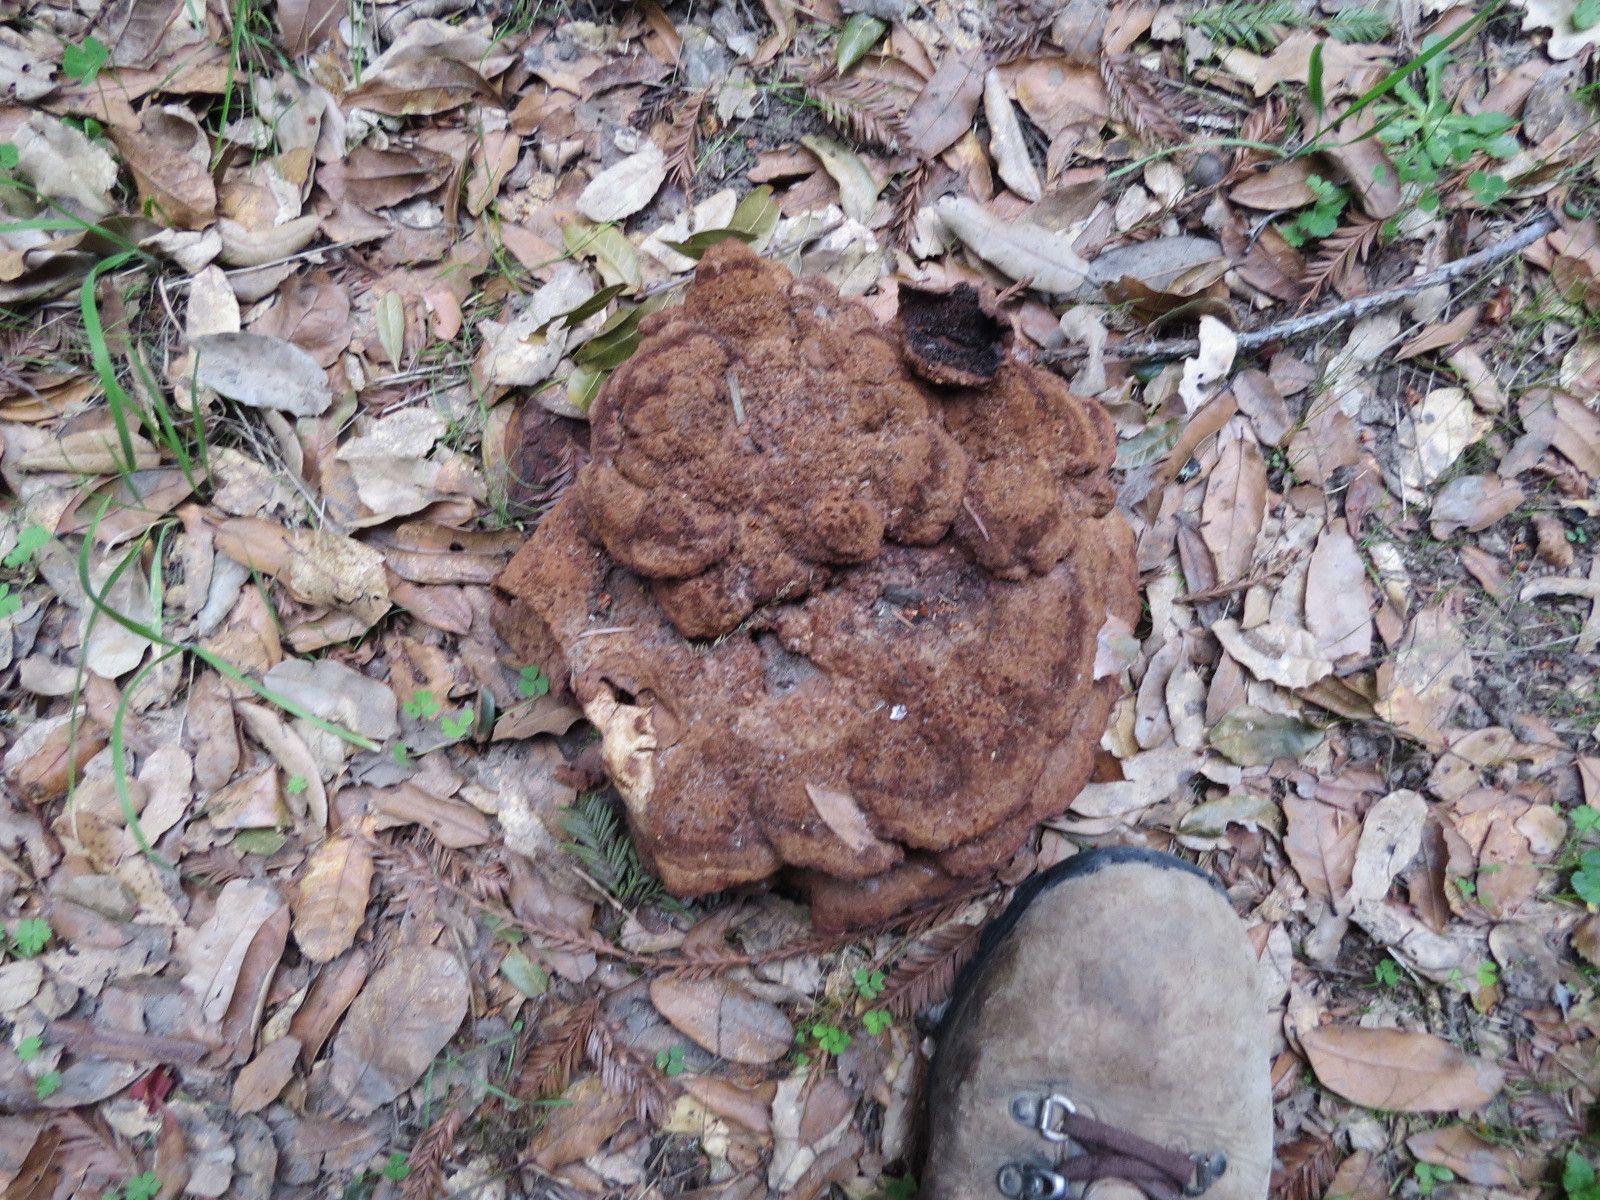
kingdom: Fungi
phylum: Basidiomycota
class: Agaricomycetes
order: Polyporales
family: Laetiporaceae
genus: Phaeolus
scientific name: Phaeolus schweinitzii
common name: Dyer's mazegill
